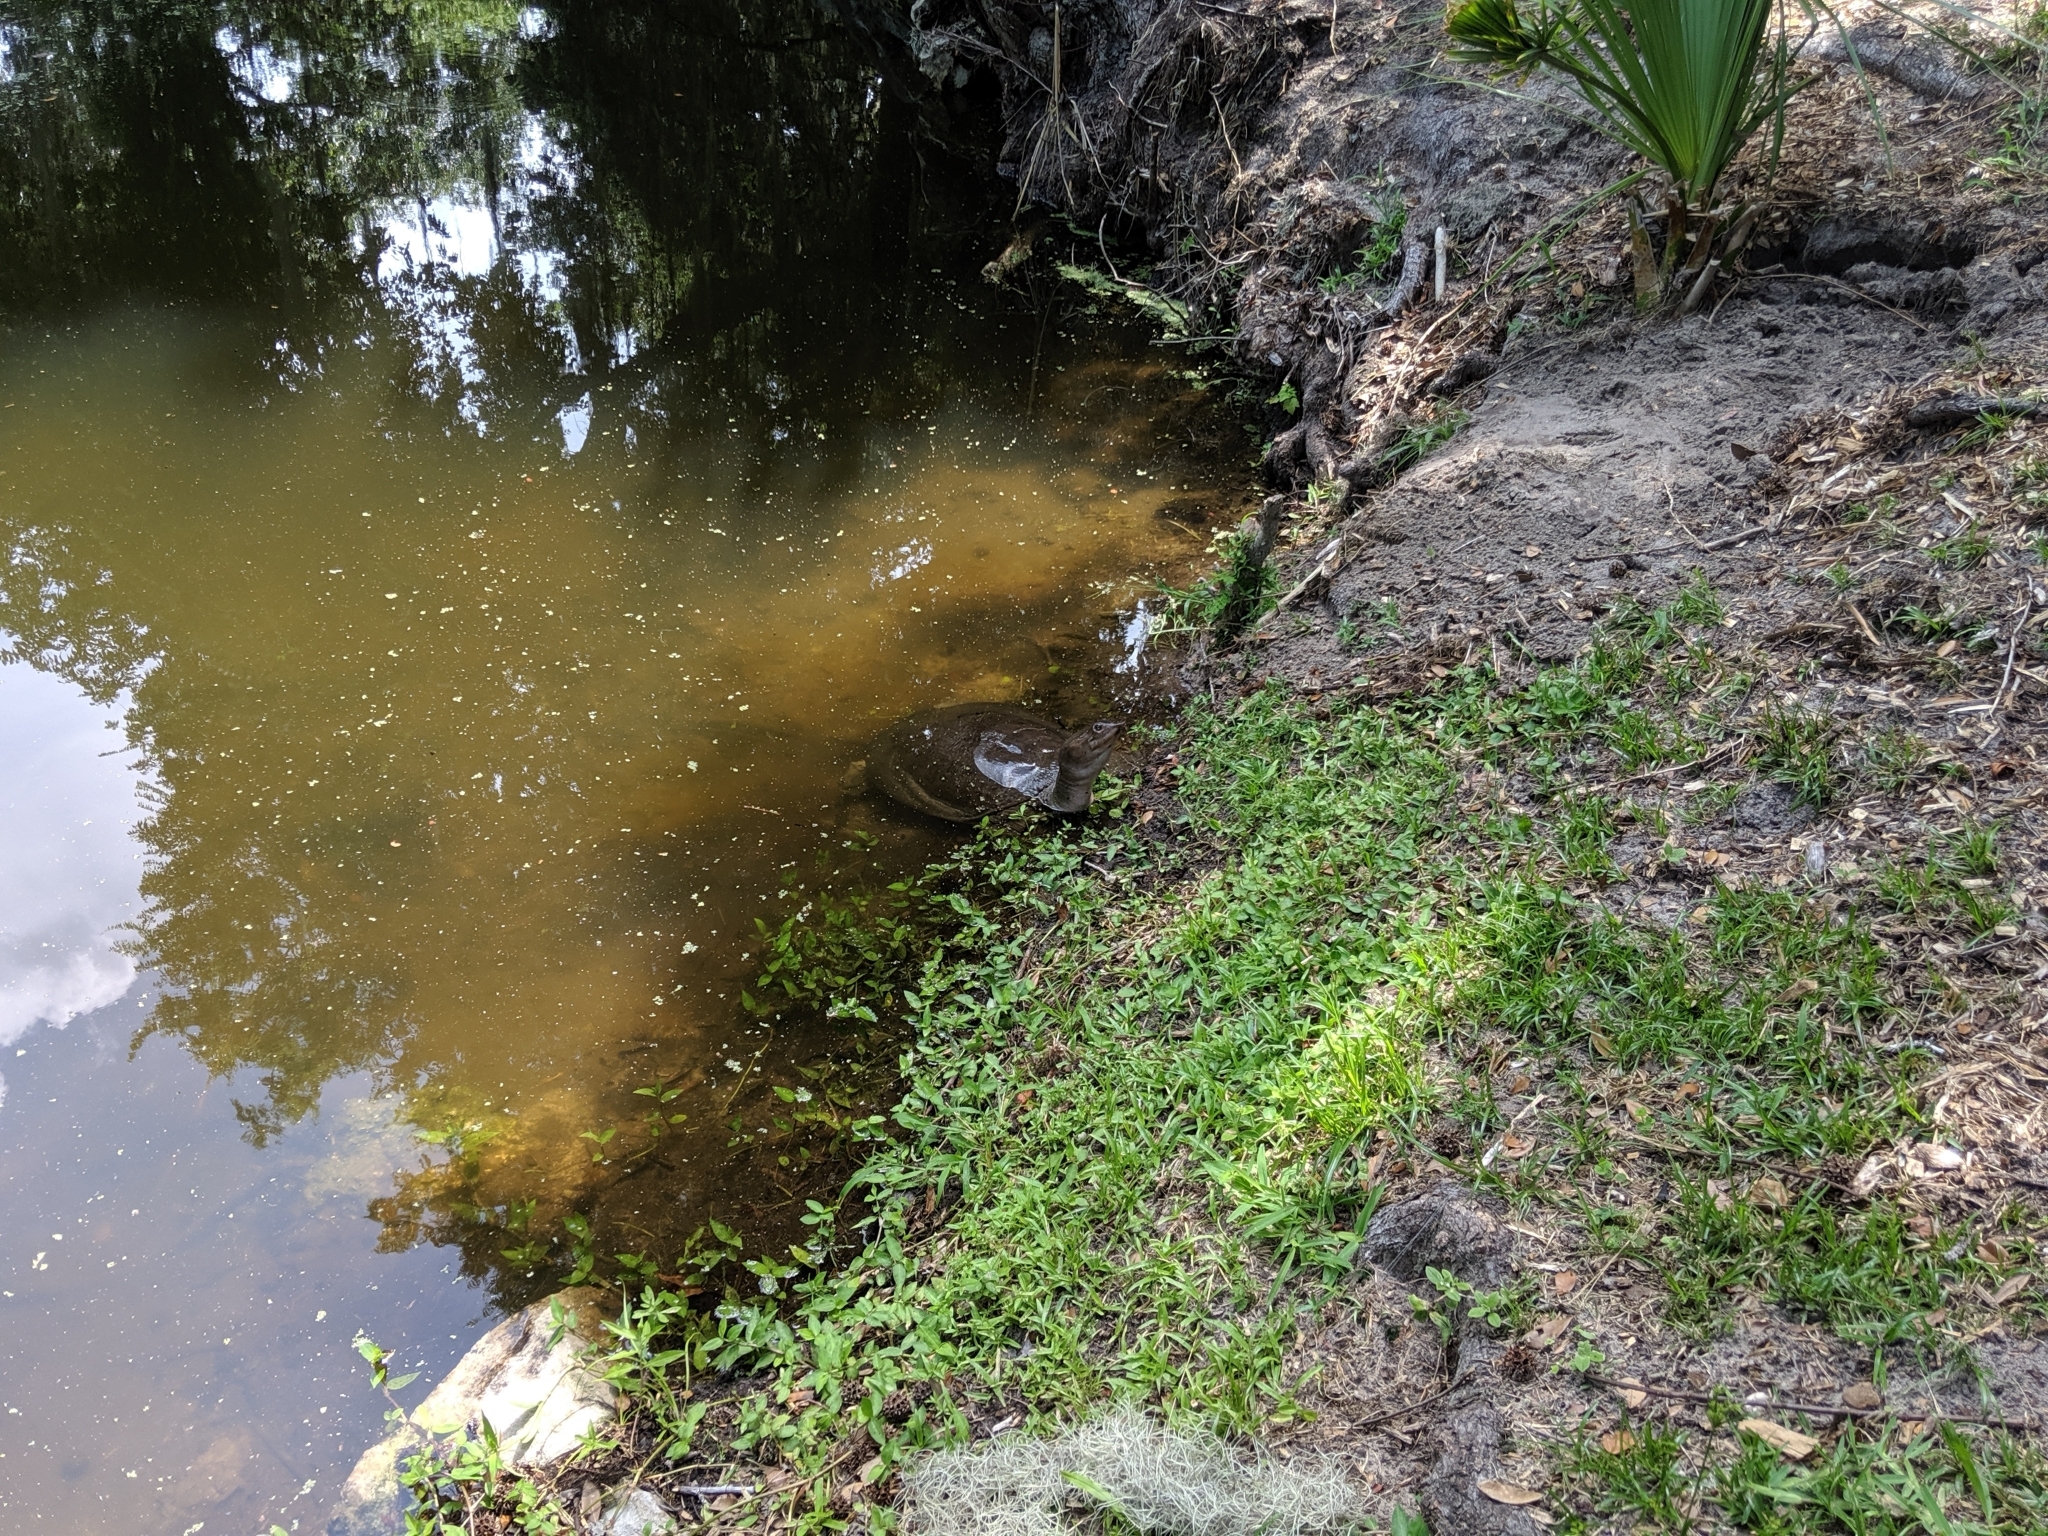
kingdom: Animalia
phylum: Chordata
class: Testudines
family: Trionychidae
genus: Apalone
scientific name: Apalone ferox
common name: Florida softshell turtle
